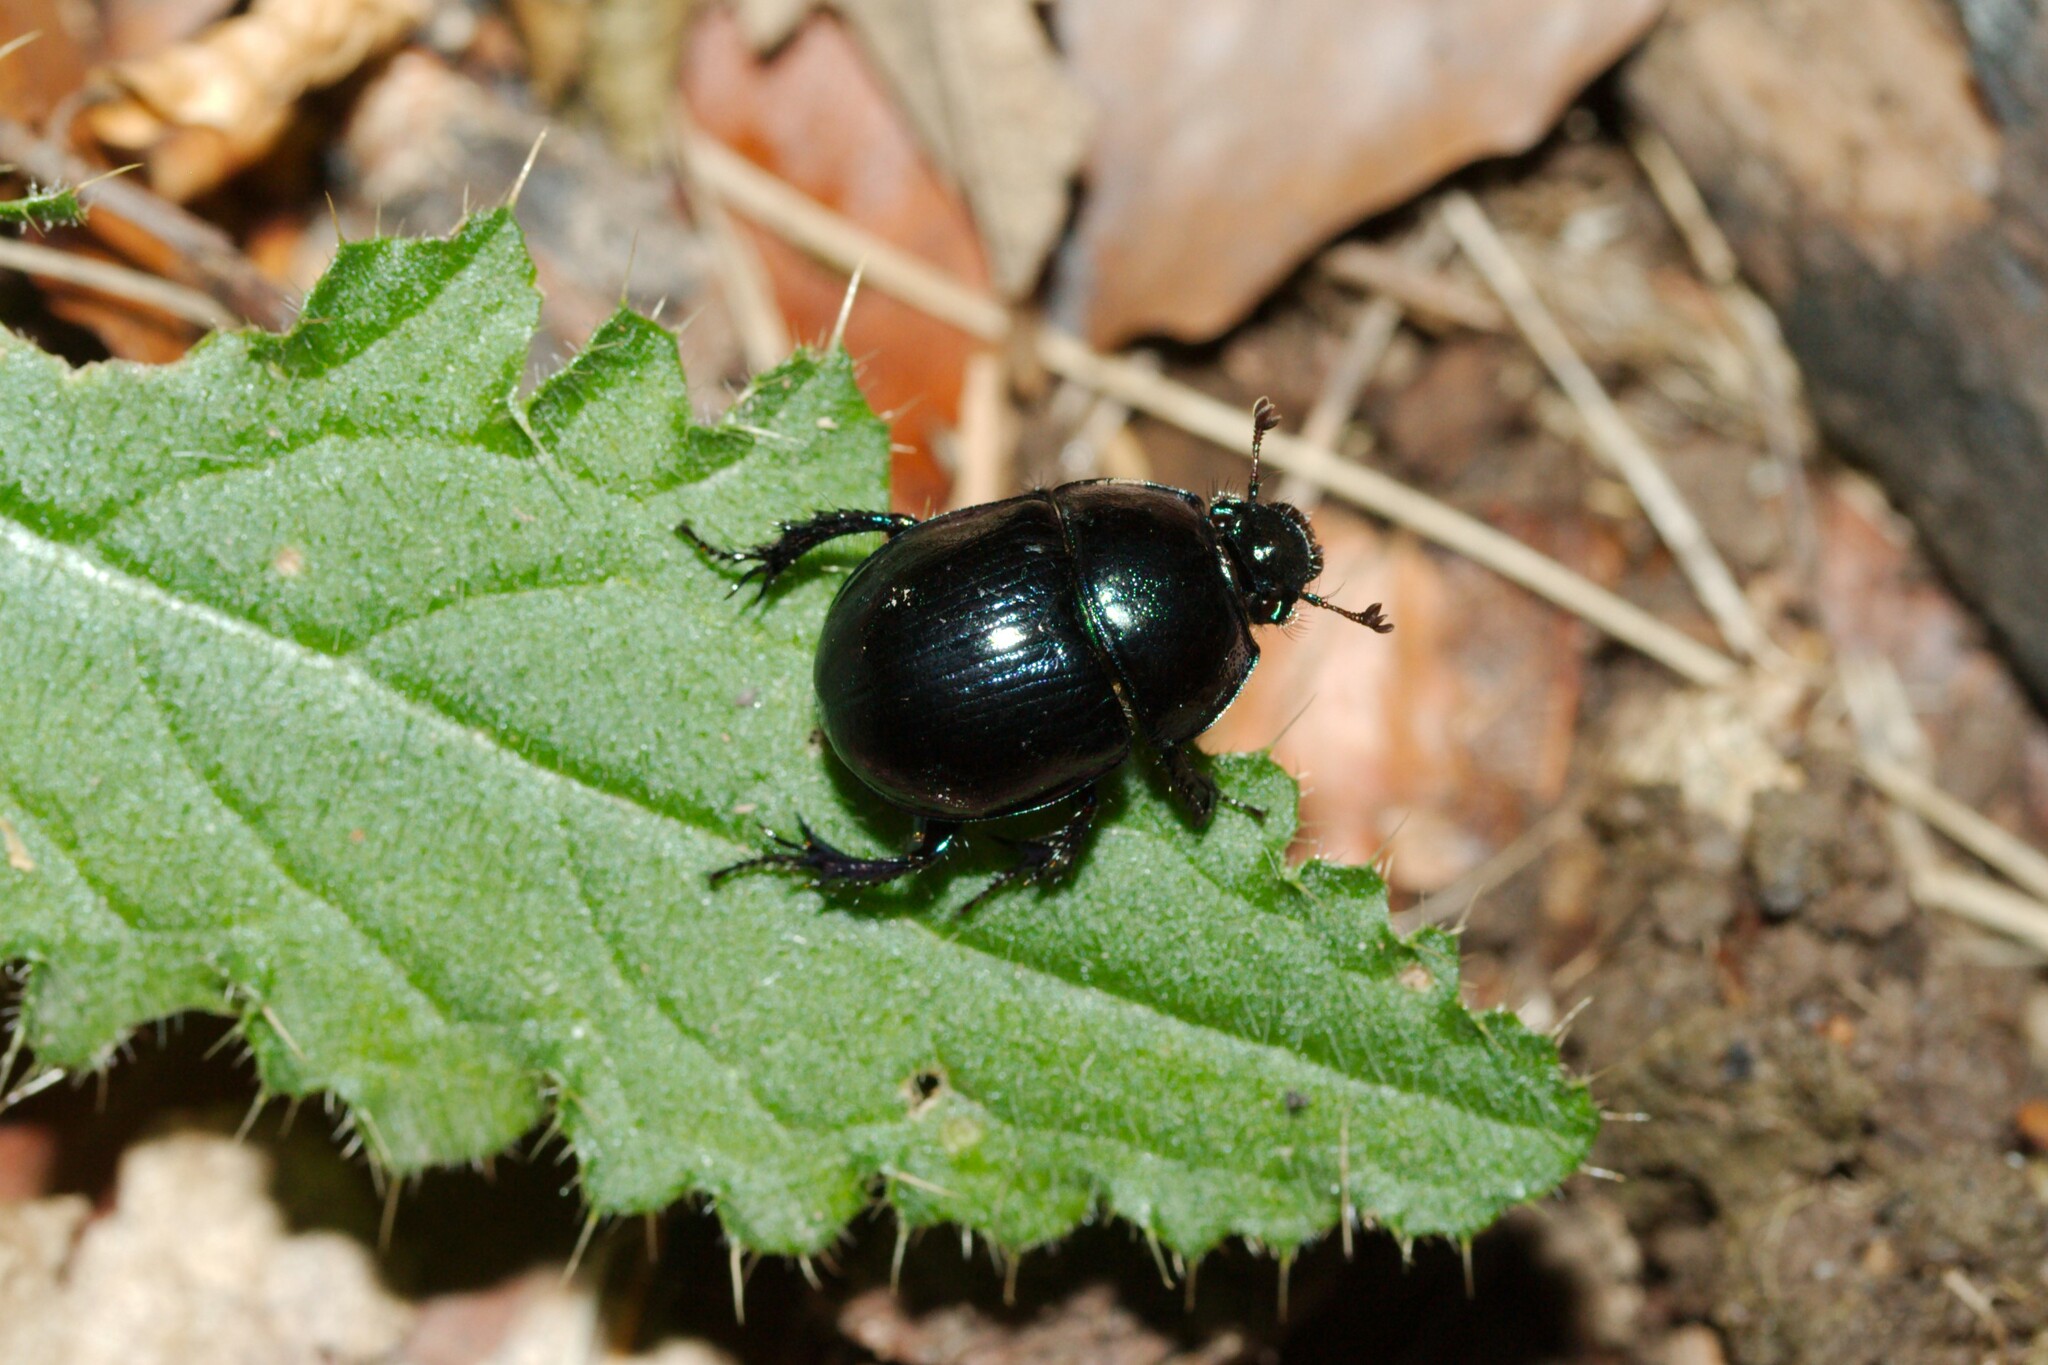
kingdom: Animalia
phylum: Arthropoda
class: Insecta
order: Coleoptera
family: Geotrupidae
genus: Anoplotrupes
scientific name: Anoplotrupes stercorosus
